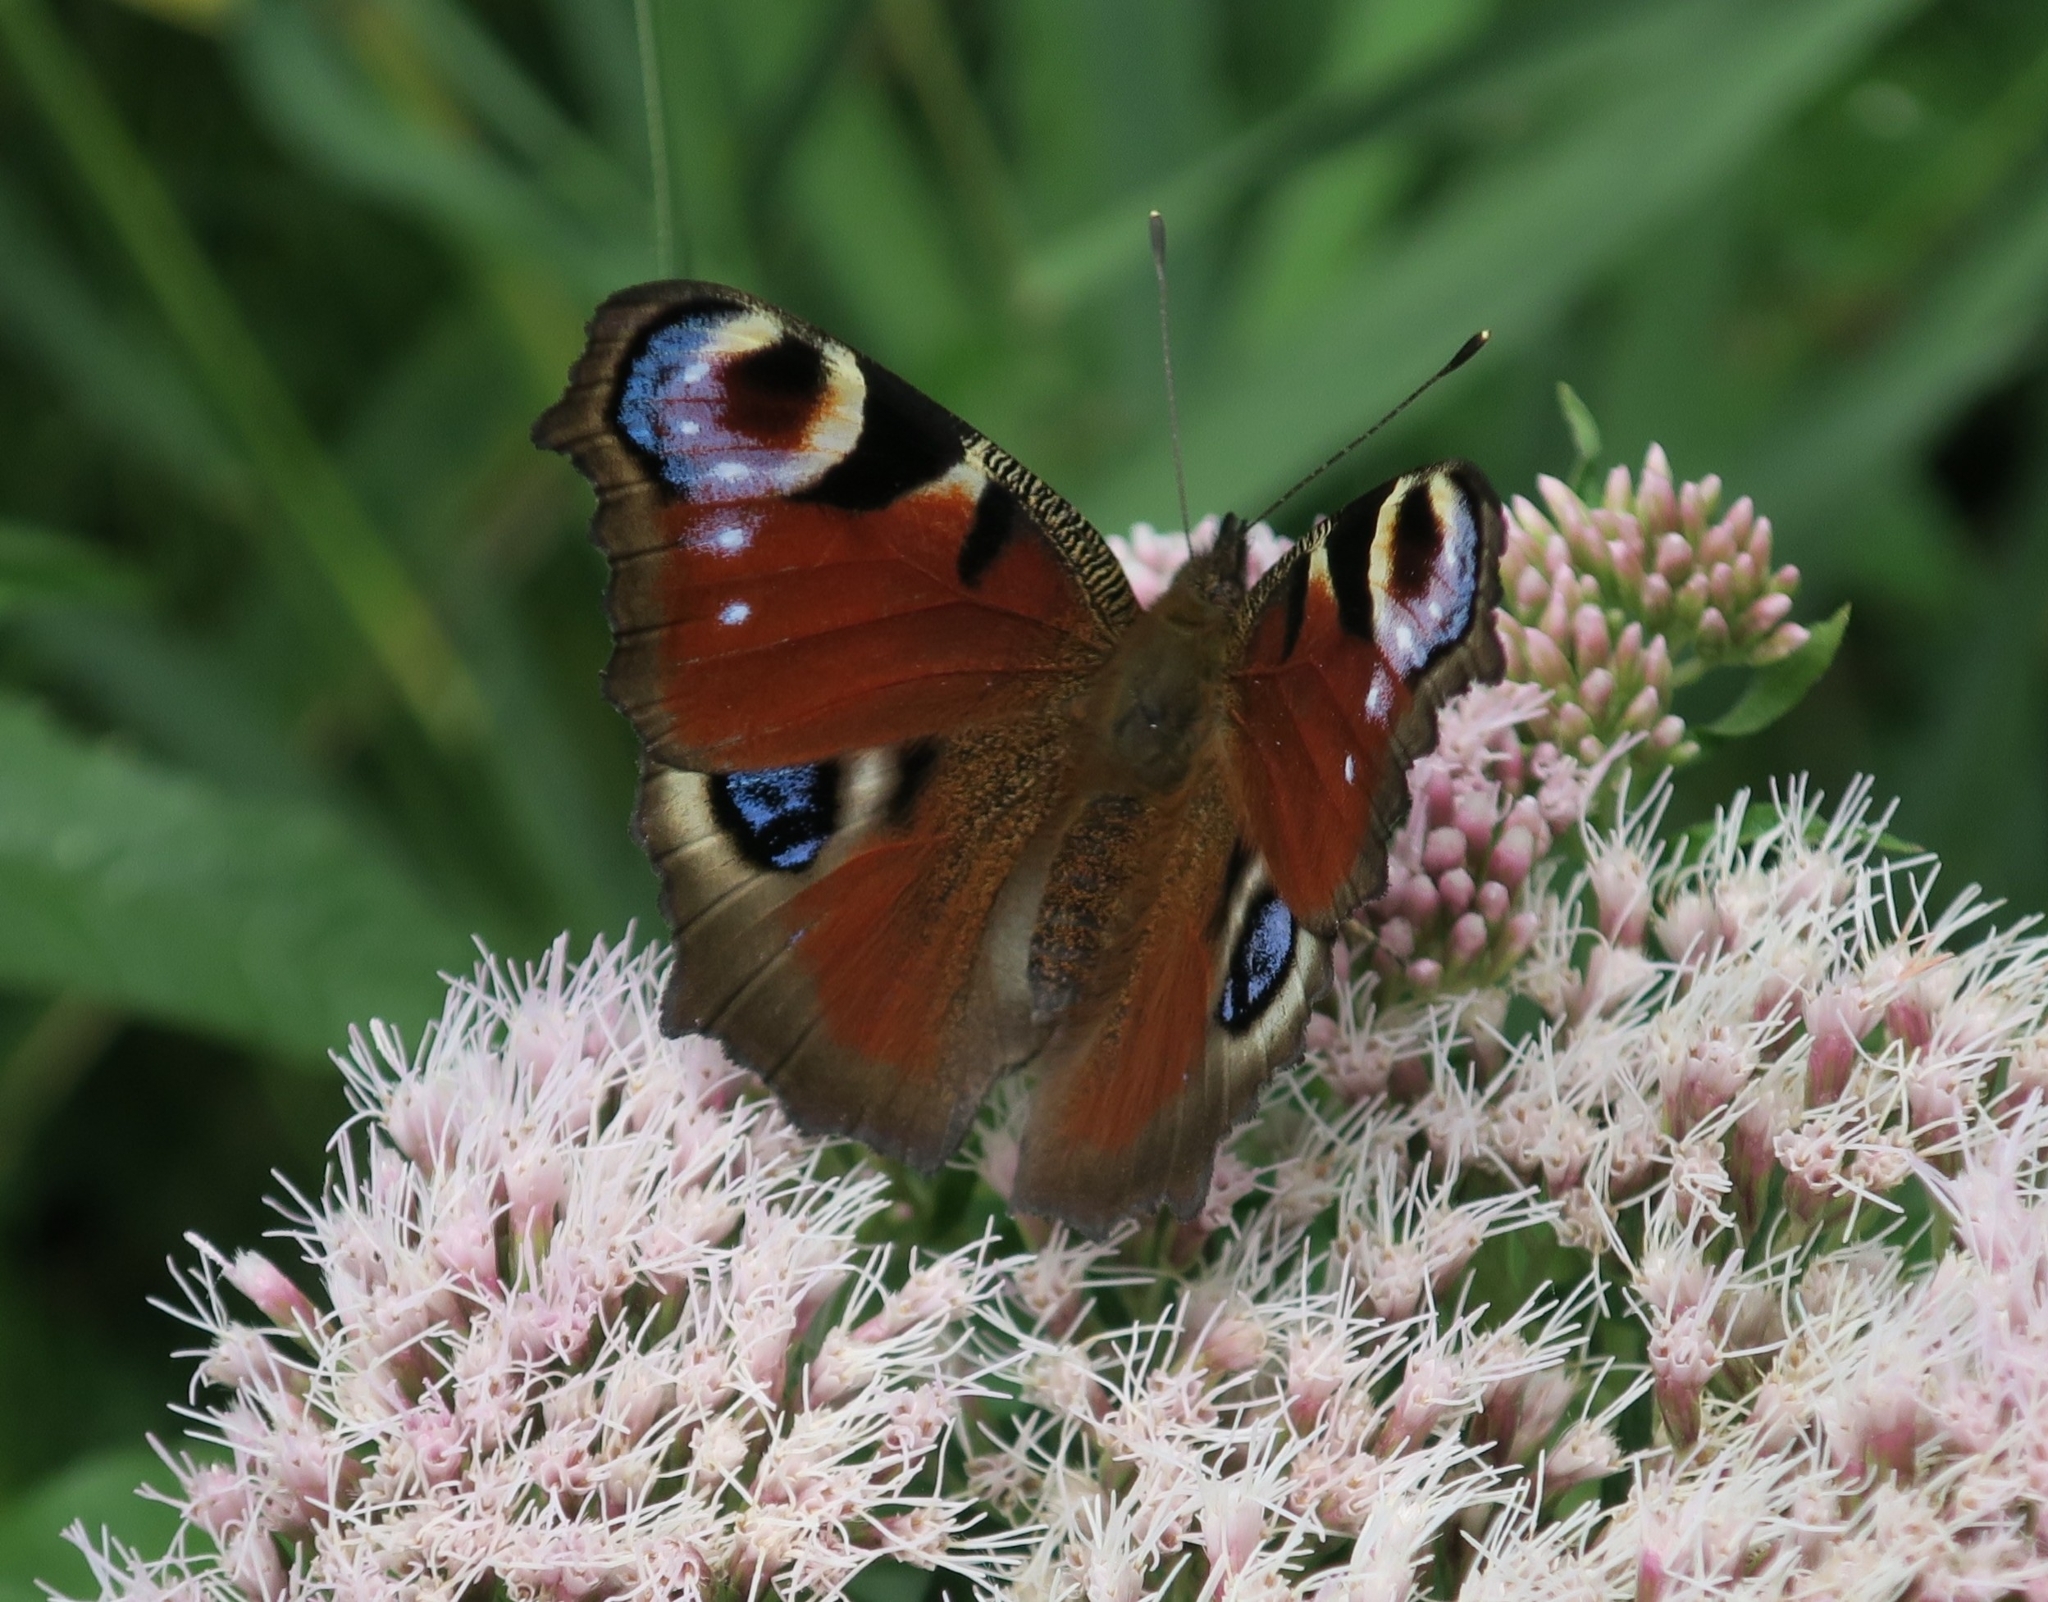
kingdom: Animalia
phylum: Arthropoda
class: Insecta
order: Lepidoptera
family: Nymphalidae
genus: Aglais
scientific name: Aglais io
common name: Peacock
